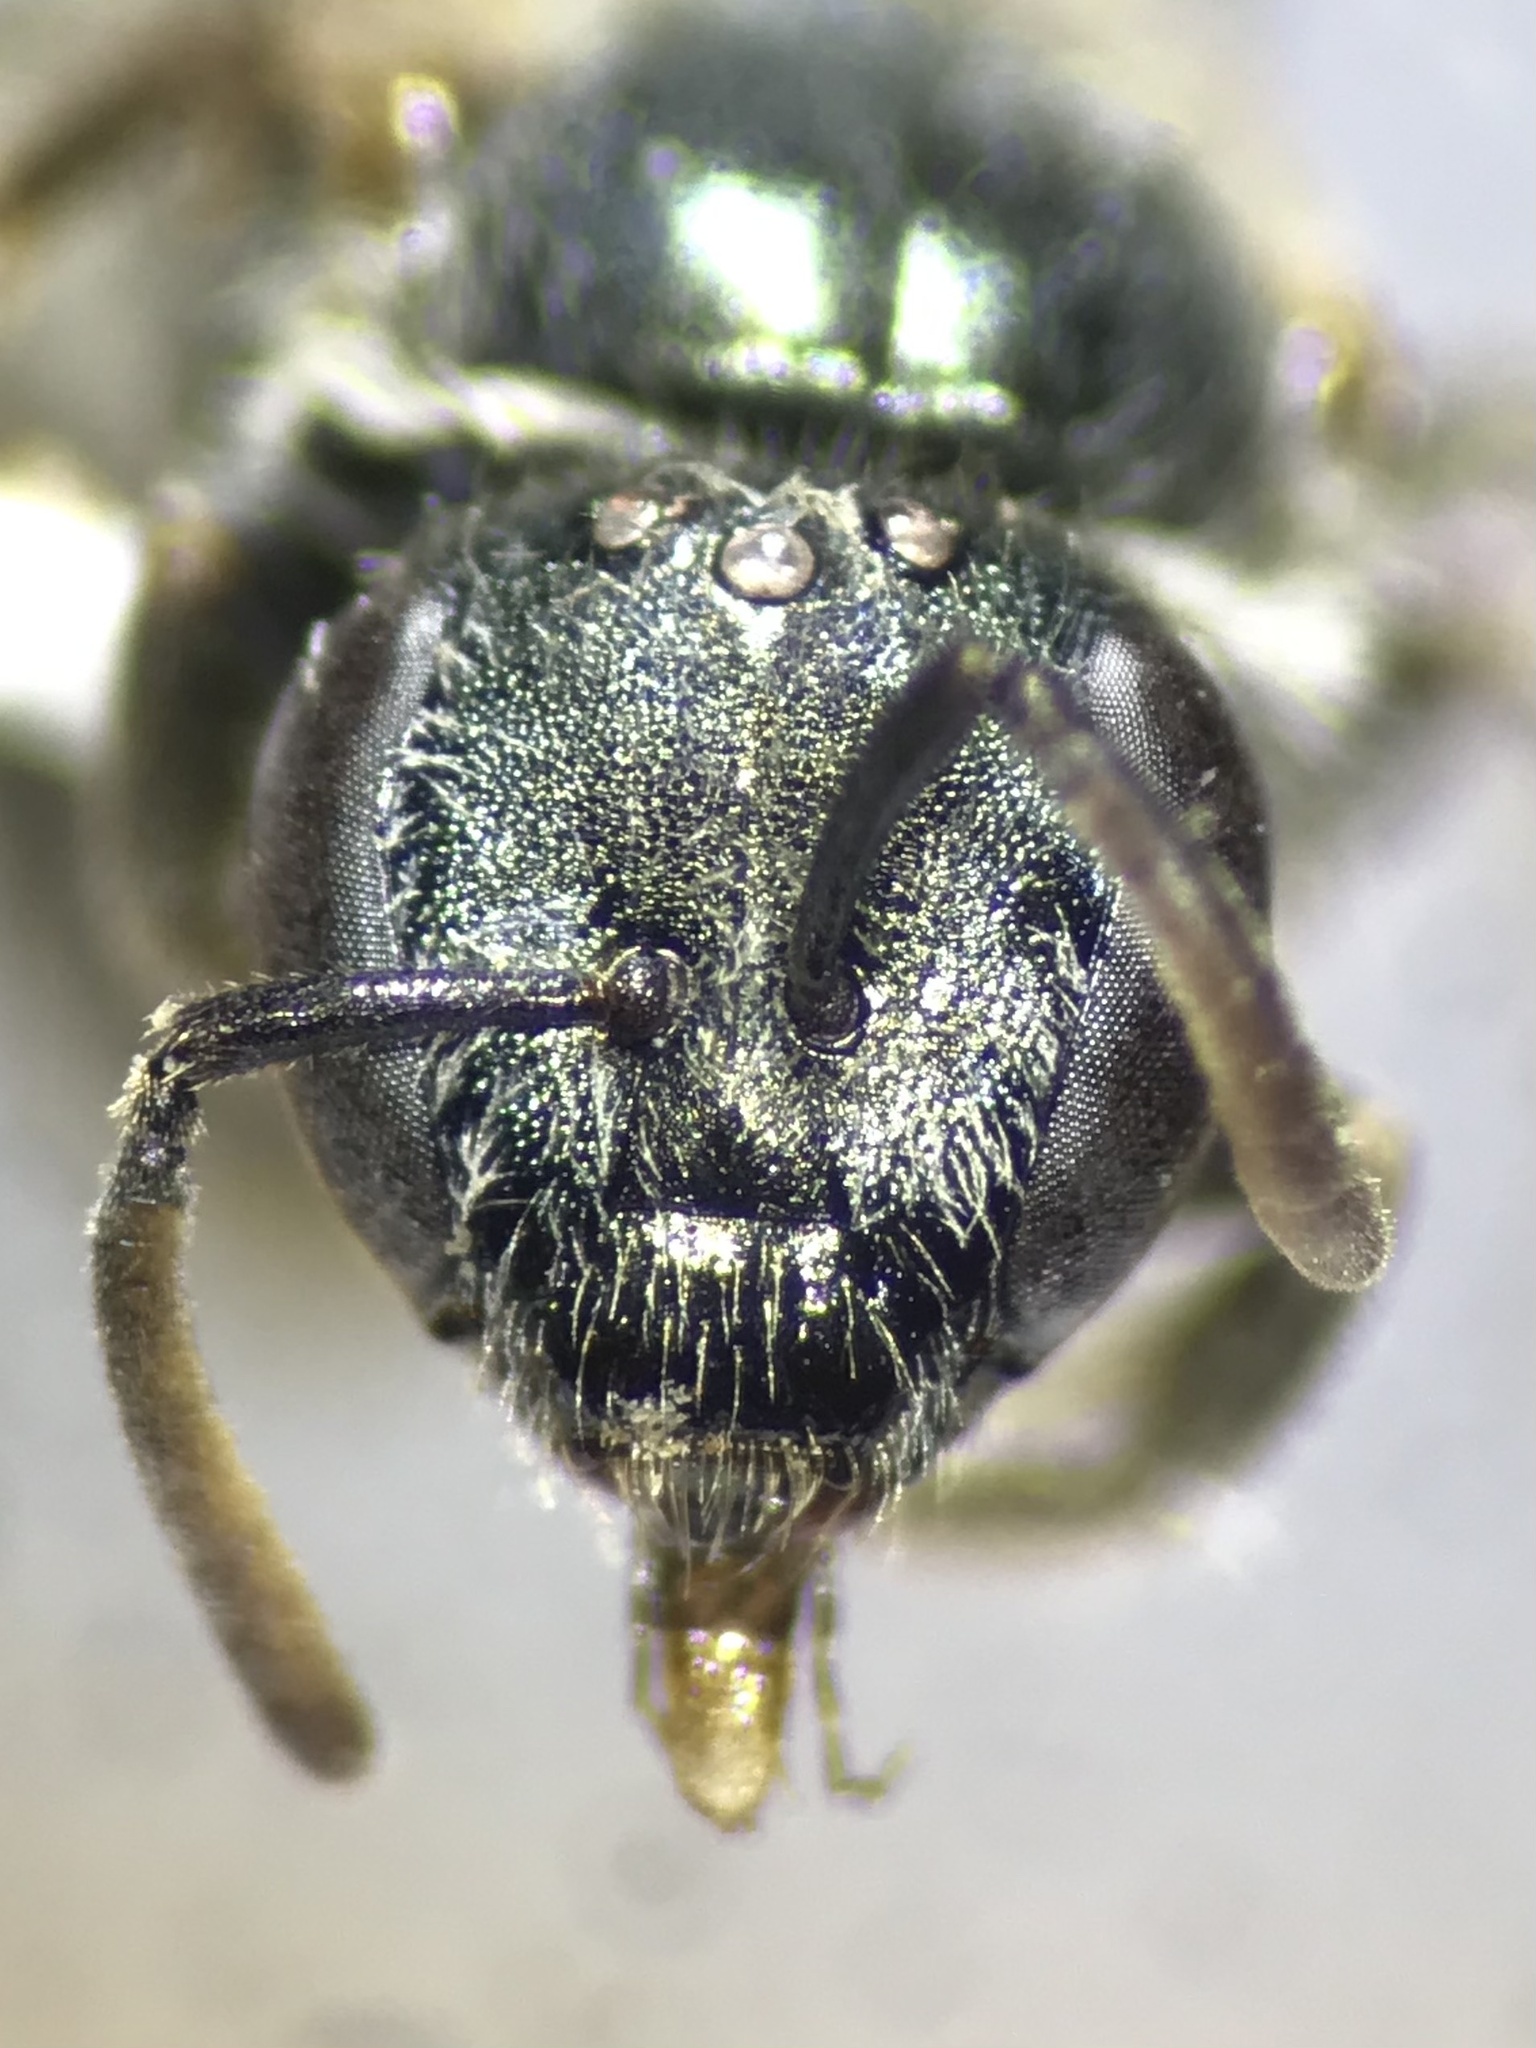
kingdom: Animalia
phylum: Arthropoda
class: Insecta
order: Hymenoptera
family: Halictidae
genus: Dialictus
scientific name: Dialictus
